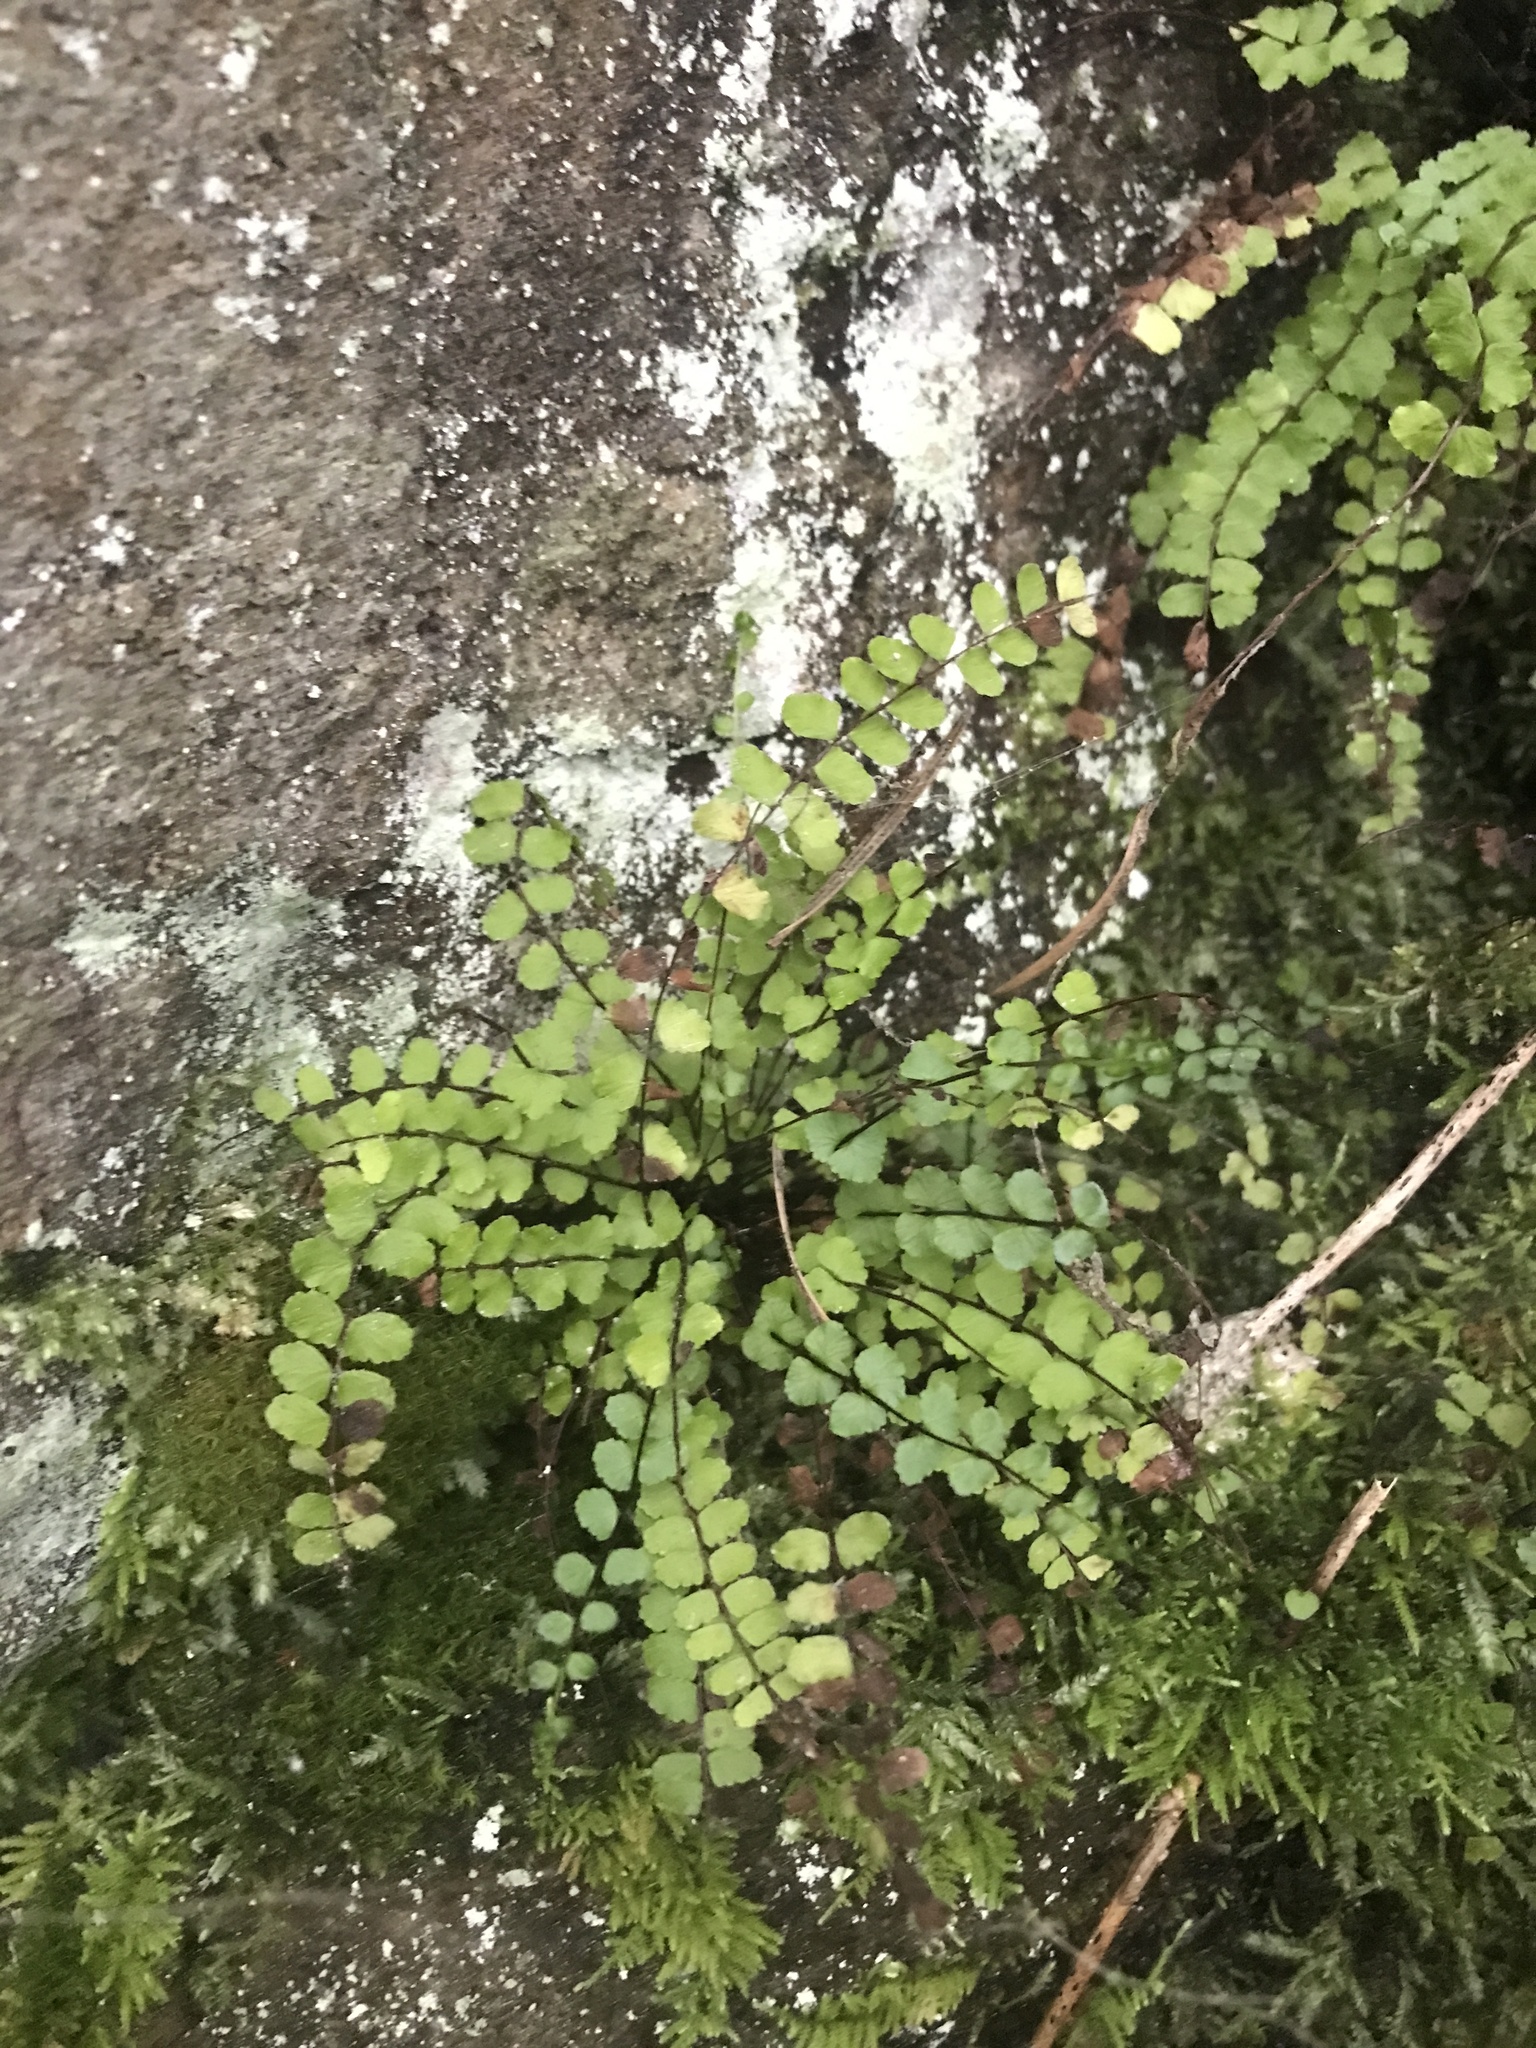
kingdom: Plantae
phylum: Tracheophyta
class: Polypodiopsida
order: Polypodiales
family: Aspleniaceae
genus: Asplenium
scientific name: Asplenium trichomanes
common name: Maidenhair spleenwort
